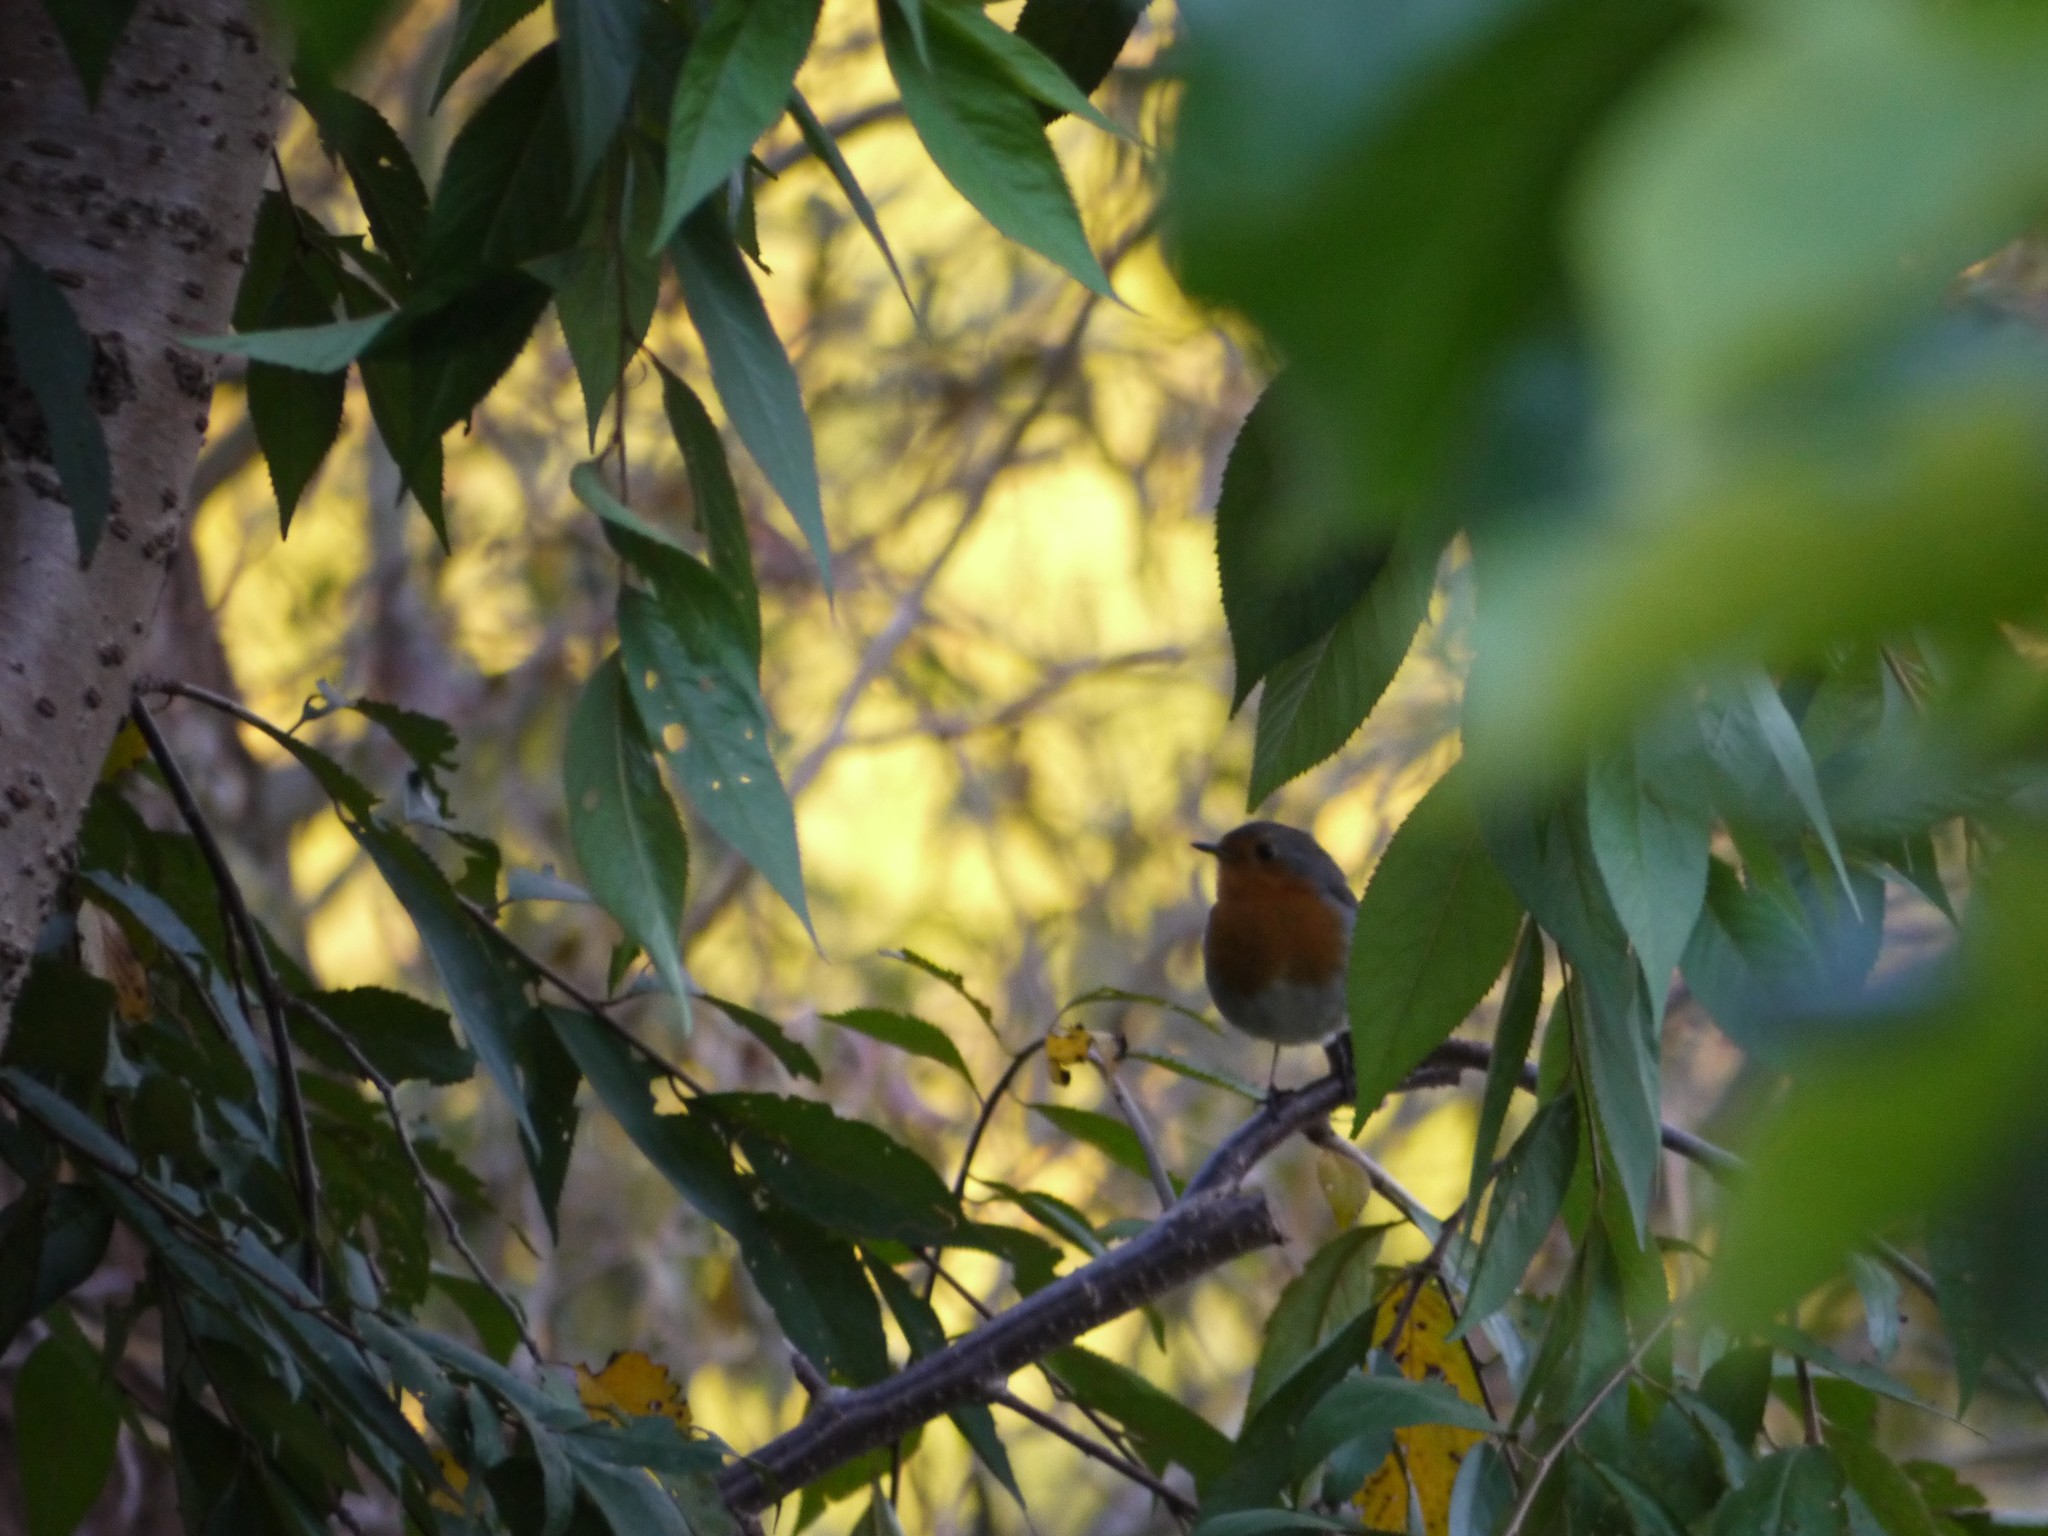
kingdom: Animalia
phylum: Chordata
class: Aves
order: Passeriformes
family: Muscicapidae
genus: Erithacus
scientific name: Erithacus rubecula
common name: European robin
